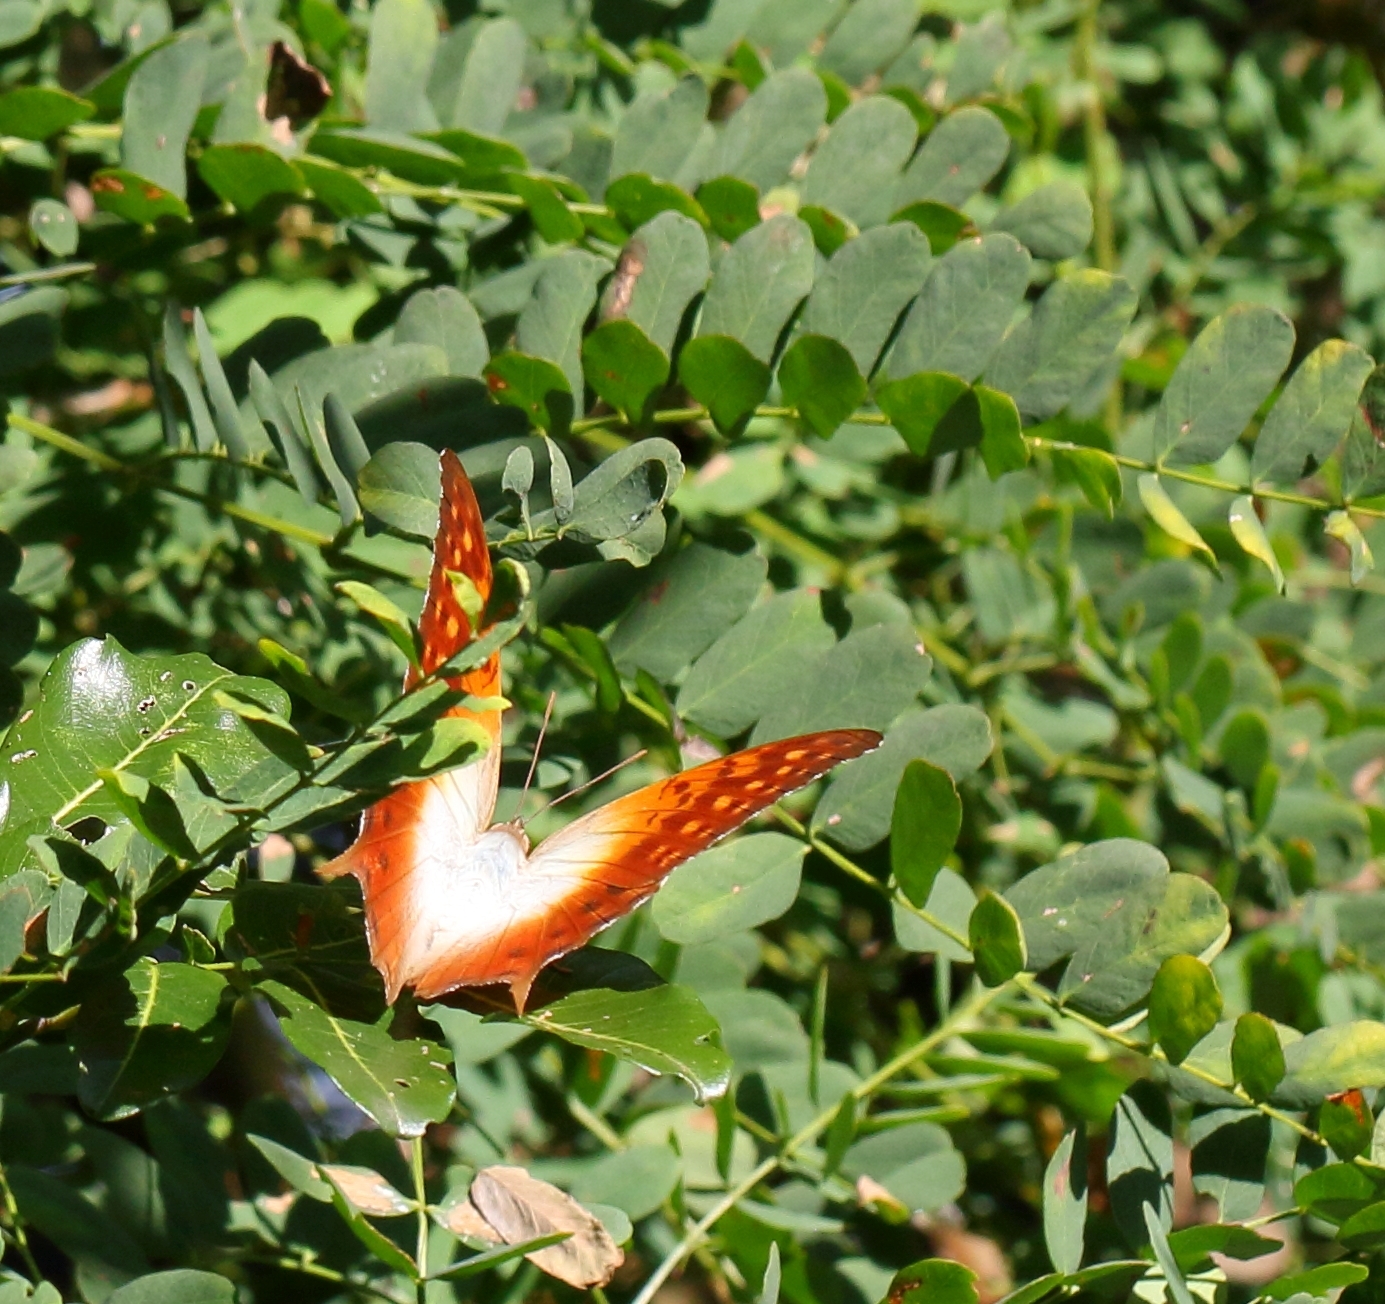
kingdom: Animalia
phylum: Arthropoda
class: Insecta
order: Lepidoptera
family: Nymphalidae
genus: Charaxes
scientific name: Charaxes varanes
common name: Common pearl charaxes
